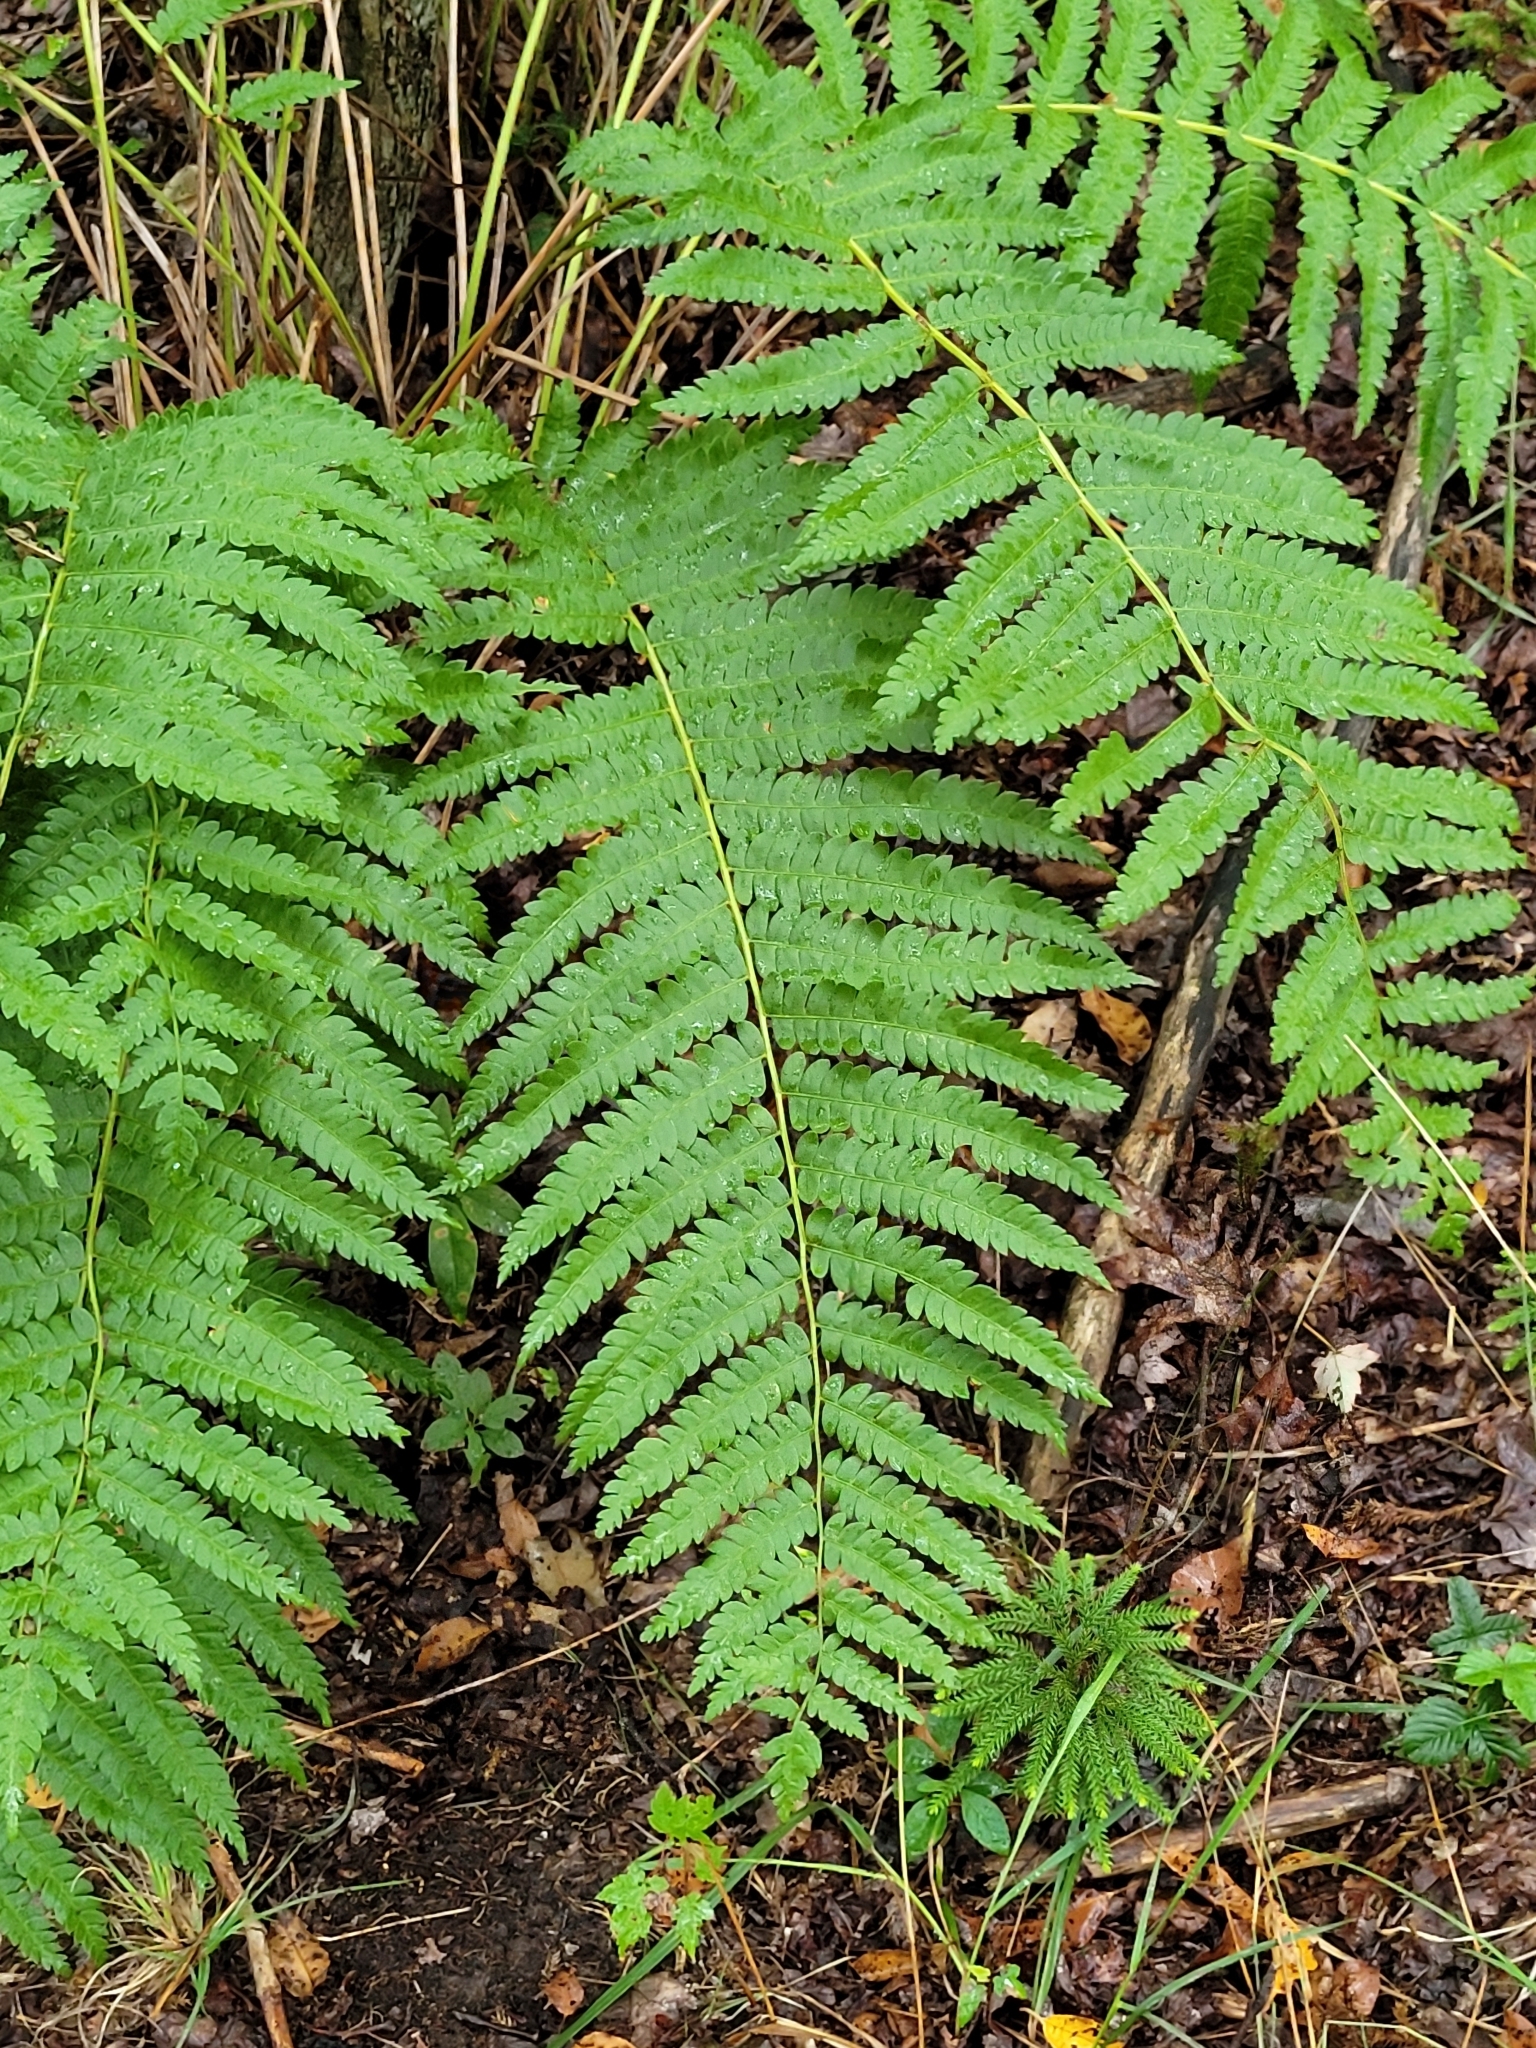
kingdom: Plantae
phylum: Tracheophyta
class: Polypodiopsida
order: Osmundales
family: Osmundaceae
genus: Osmundastrum
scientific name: Osmundastrum cinnamomeum
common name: Cinnamon fern
